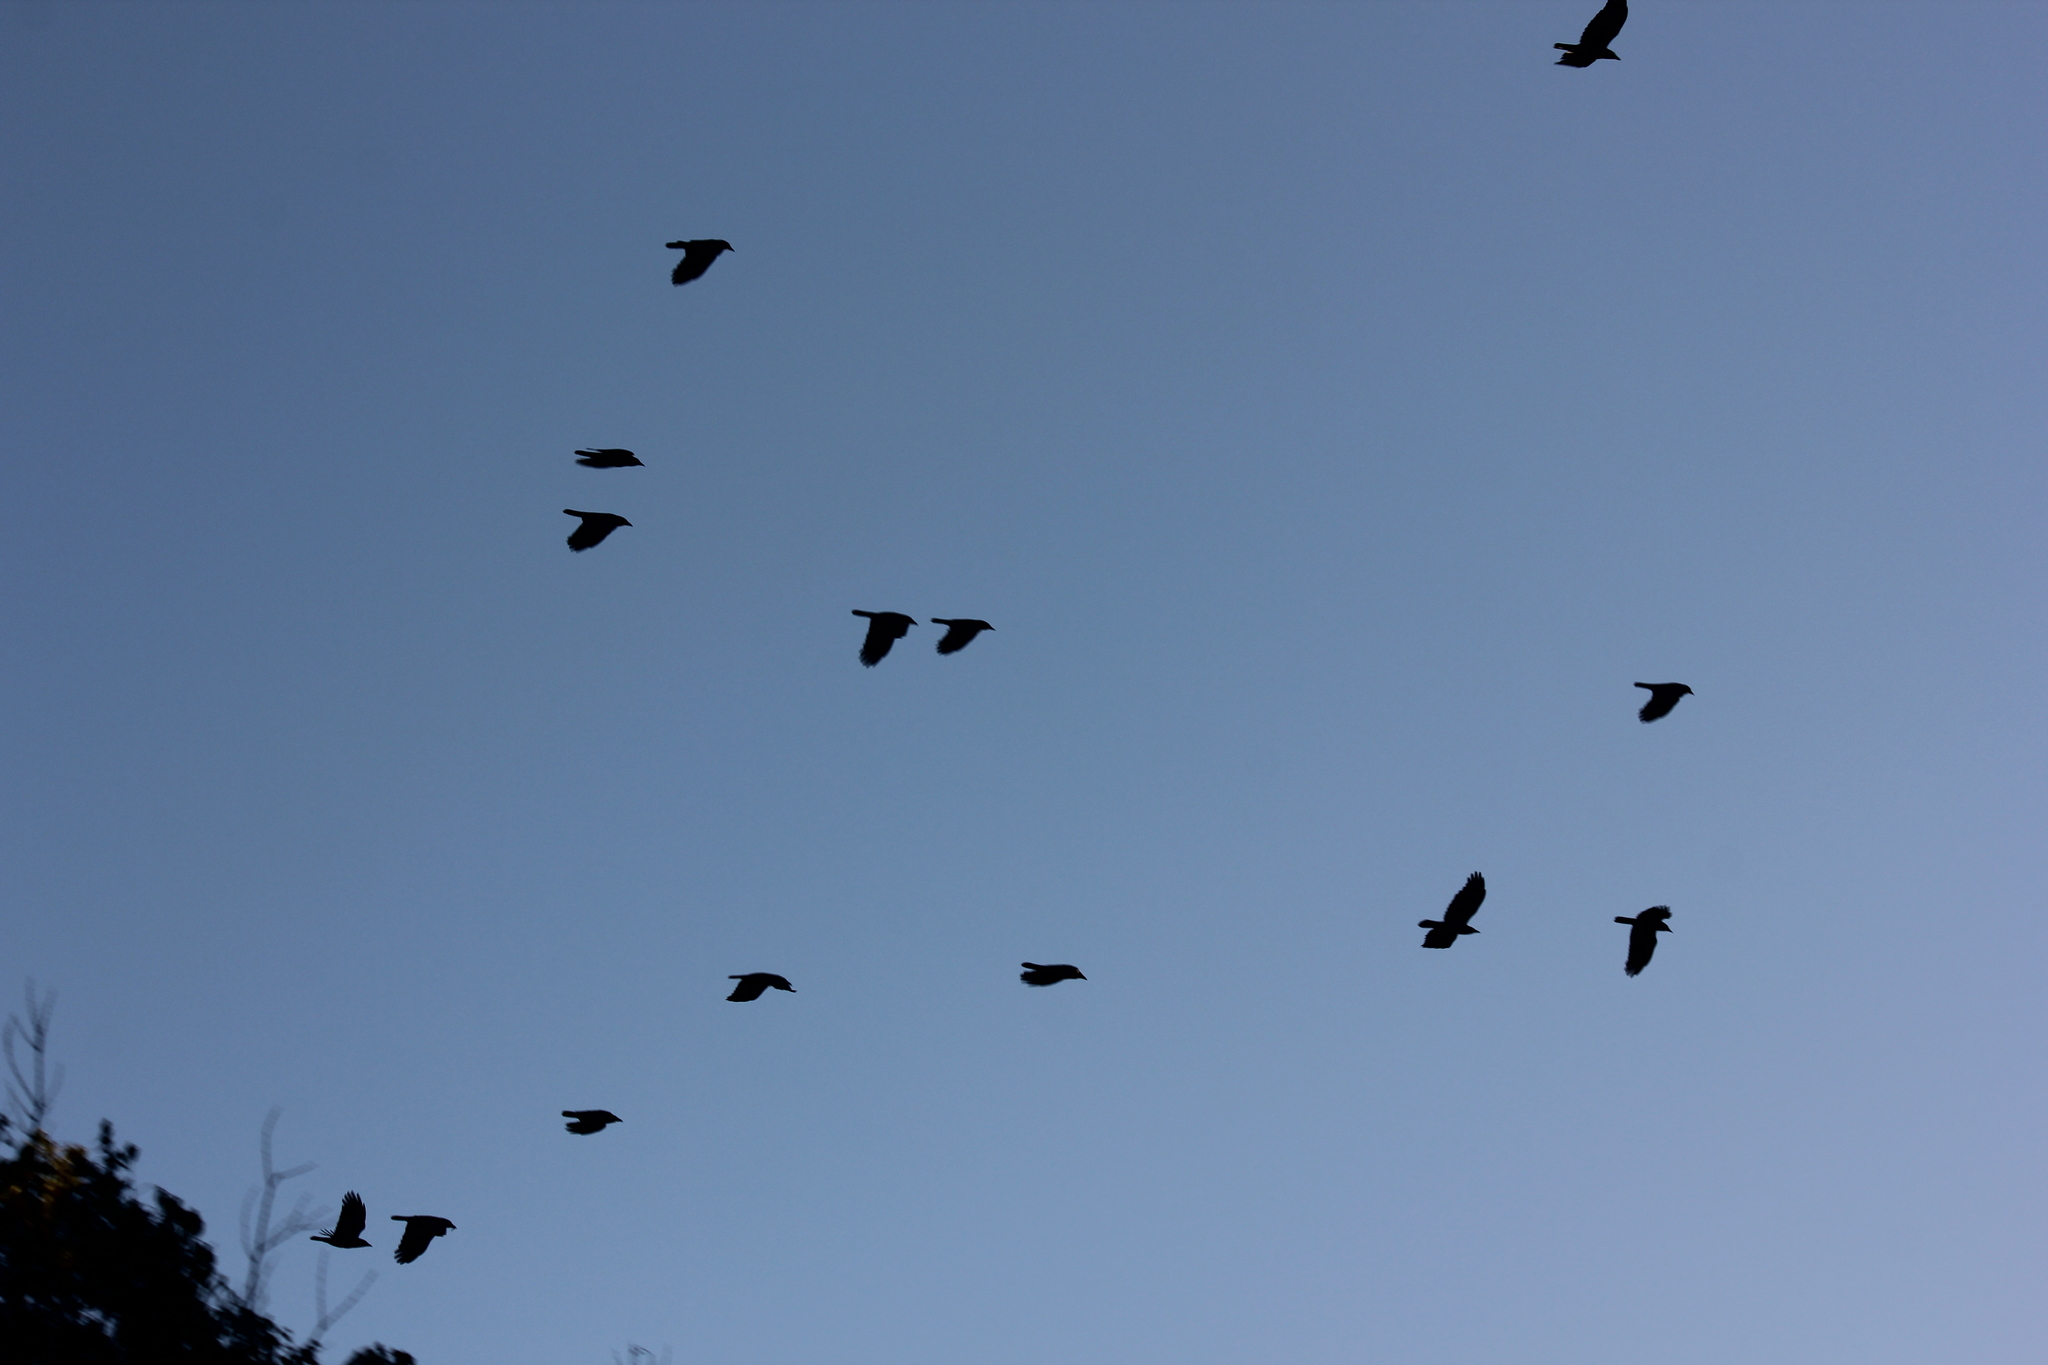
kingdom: Animalia
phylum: Chordata
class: Aves
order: Passeriformes
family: Corvidae
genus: Corvus
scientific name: Corvus brachyrhynchos
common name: American crow
